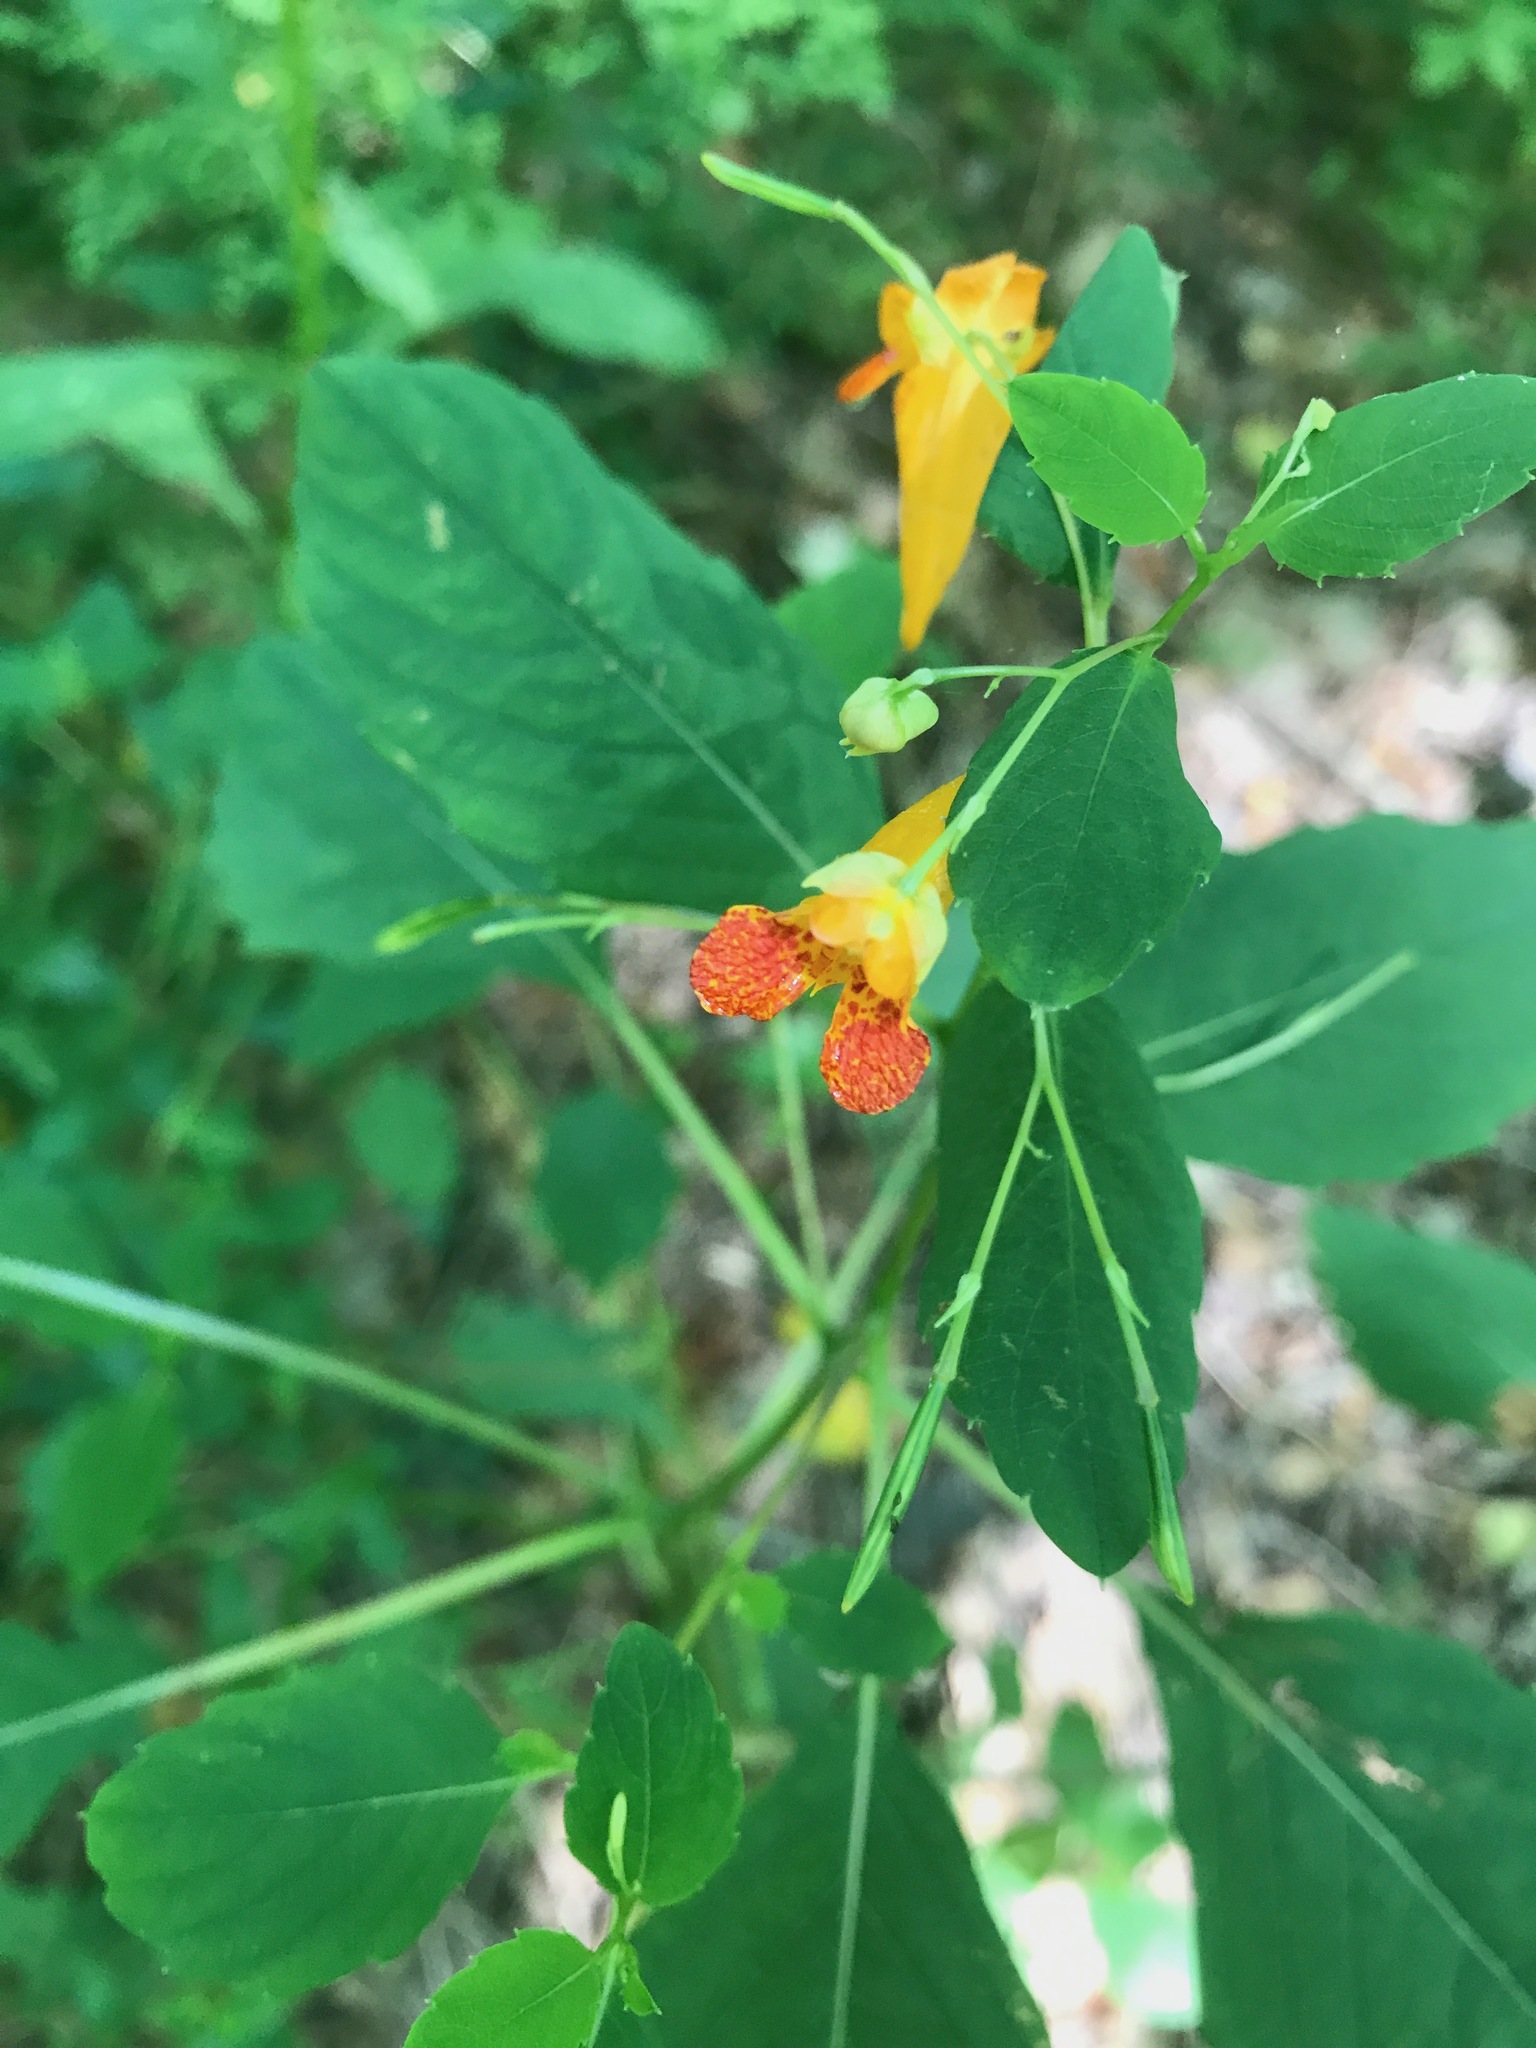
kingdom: Plantae
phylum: Tracheophyta
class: Magnoliopsida
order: Ericales
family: Balsaminaceae
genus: Impatiens
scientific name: Impatiens capensis
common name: Orange balsam
